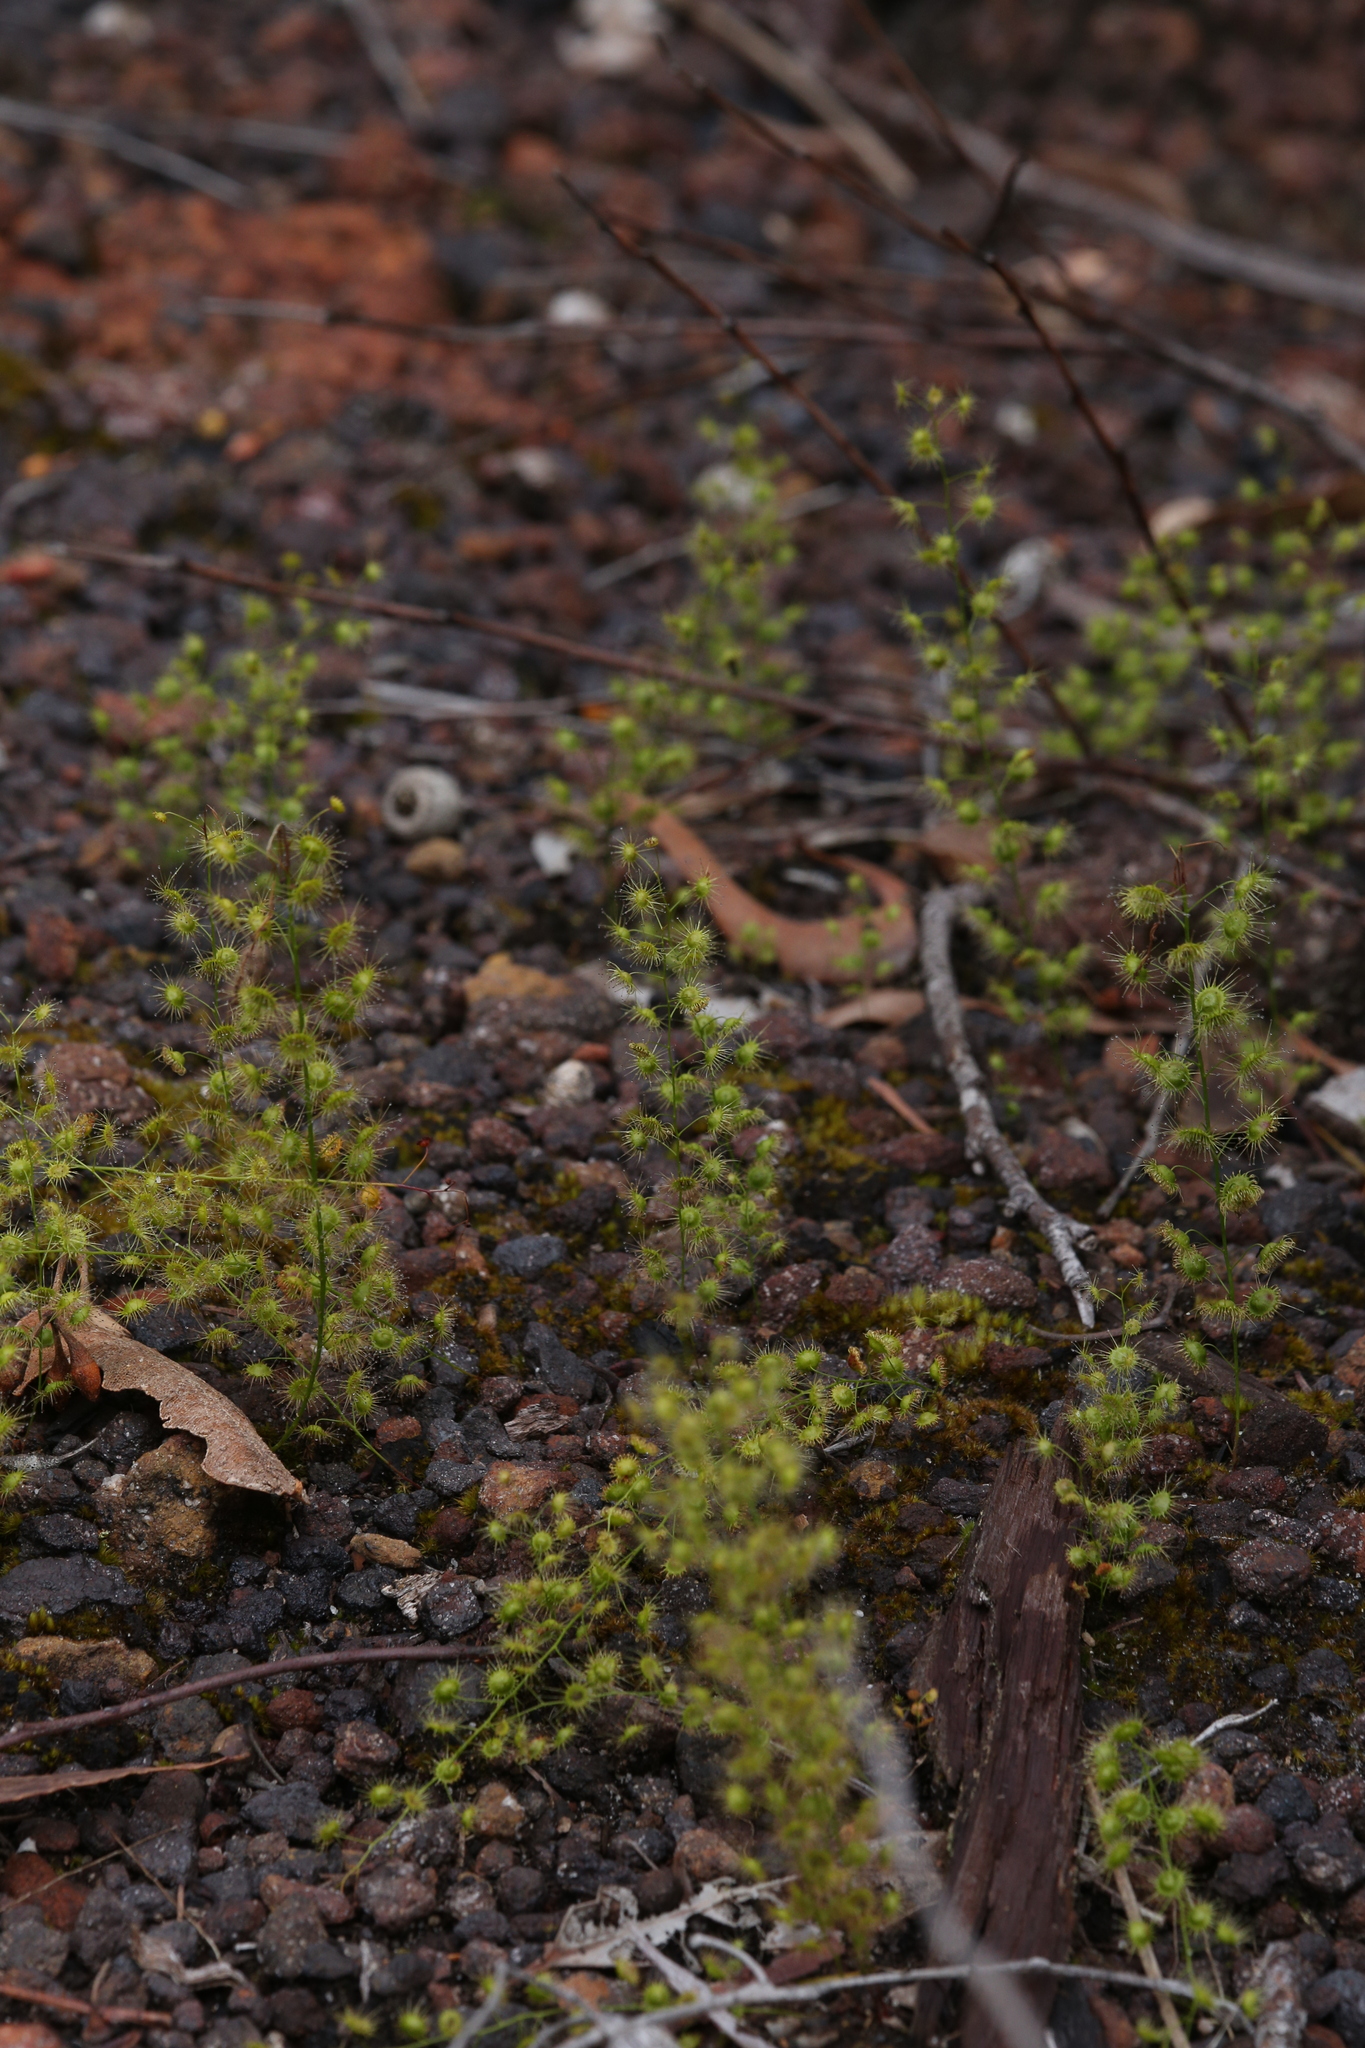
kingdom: Plantae
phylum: Tracheophyta
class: Magnoliopsida
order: Caryophyllales
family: Droseraceae
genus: Drosera
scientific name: Drosera marchantii
